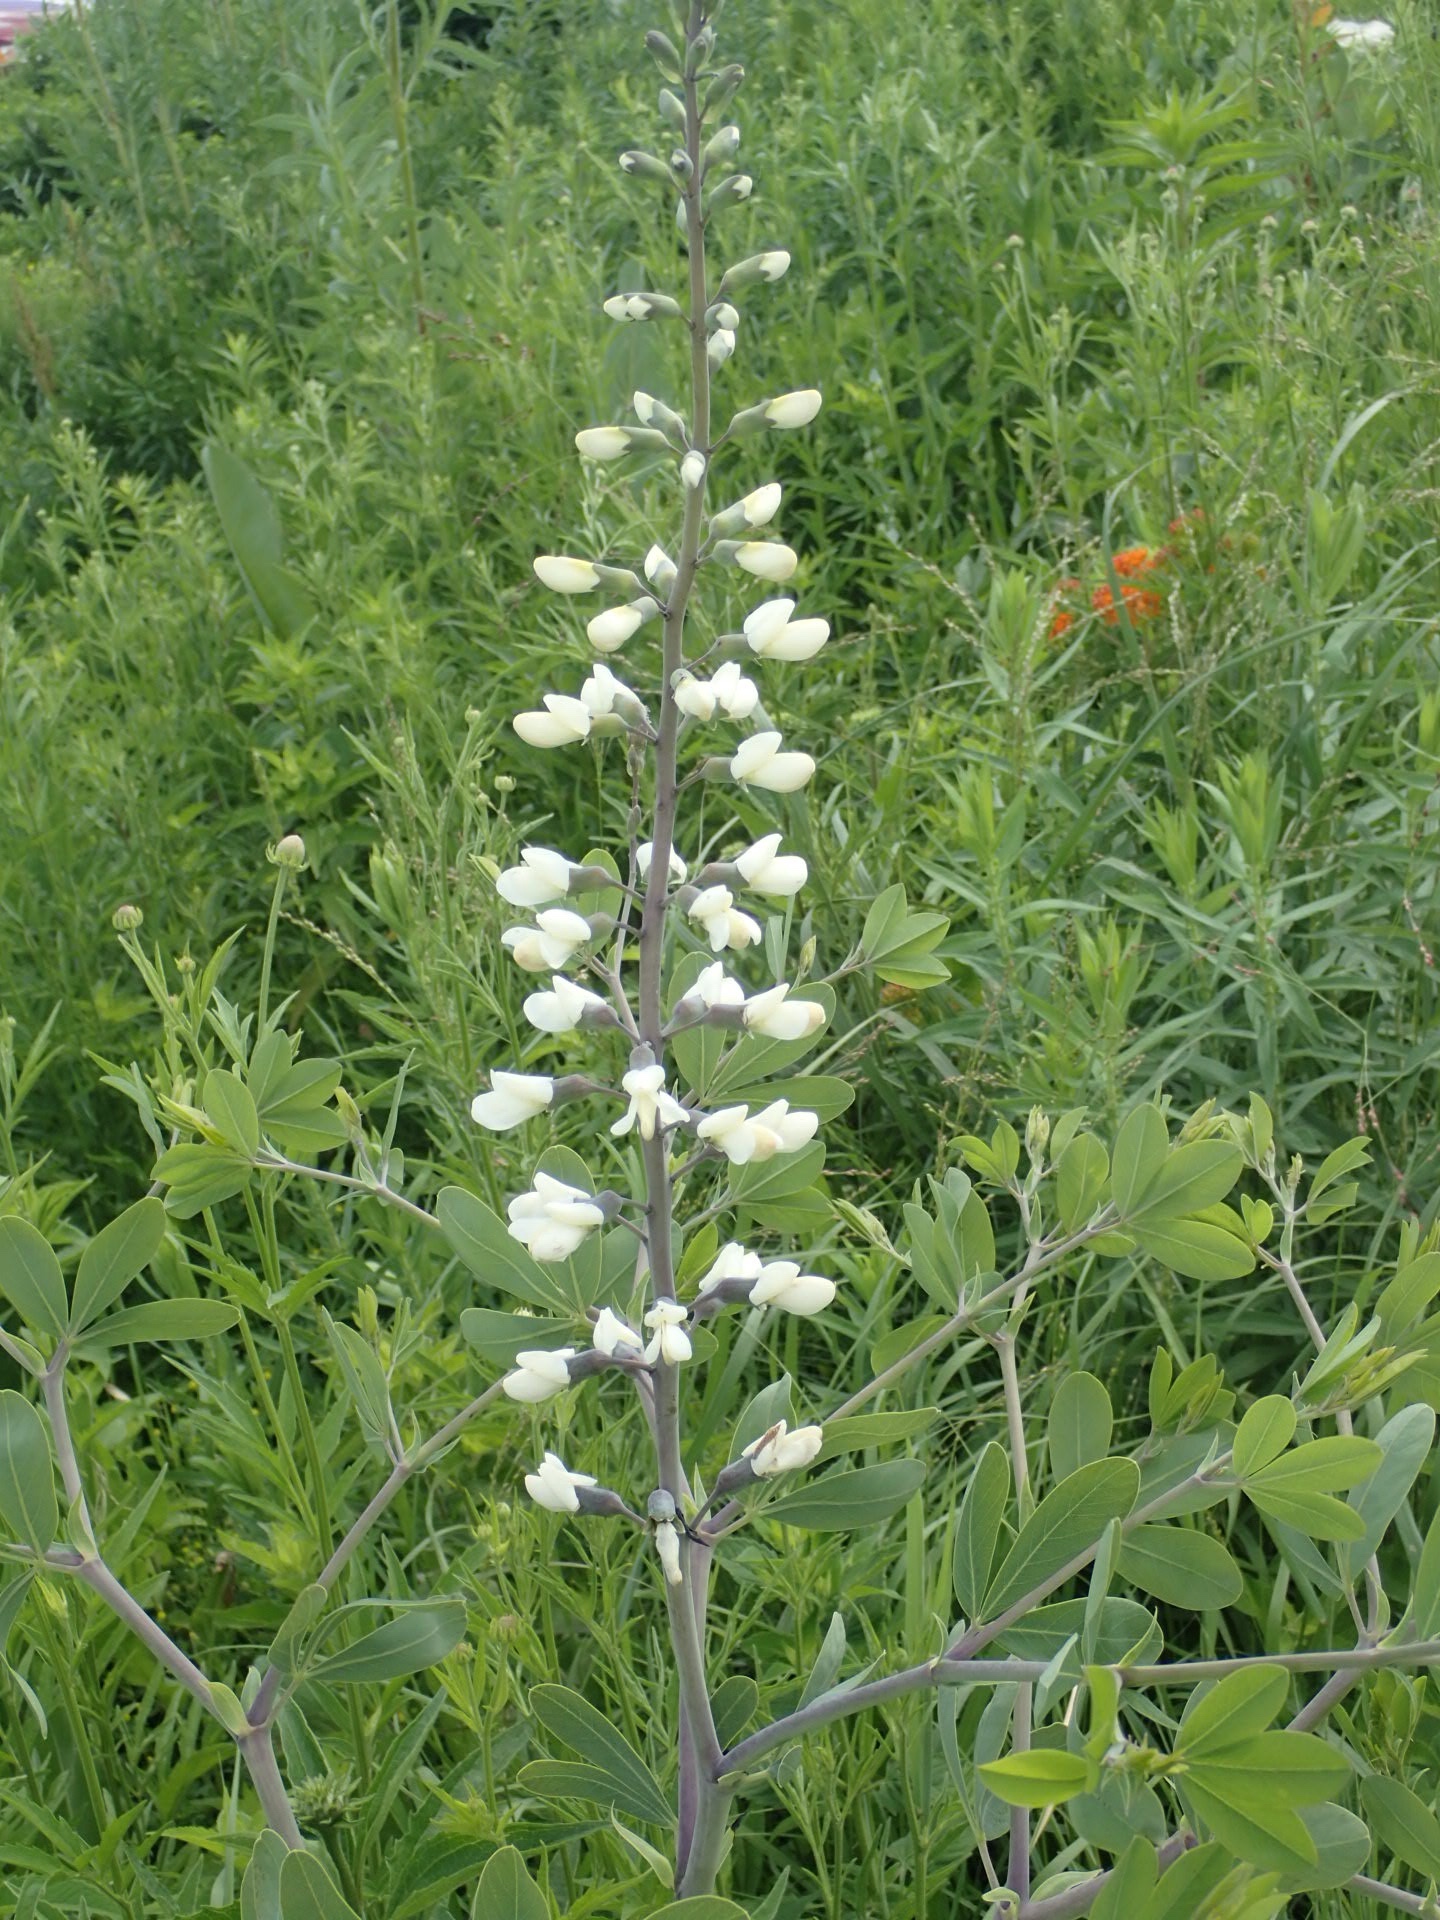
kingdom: Plantae
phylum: Tracheophyta
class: Magnoliopsida
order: Fabales
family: Fabaceae
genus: Baptisia
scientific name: Baptisia alba
